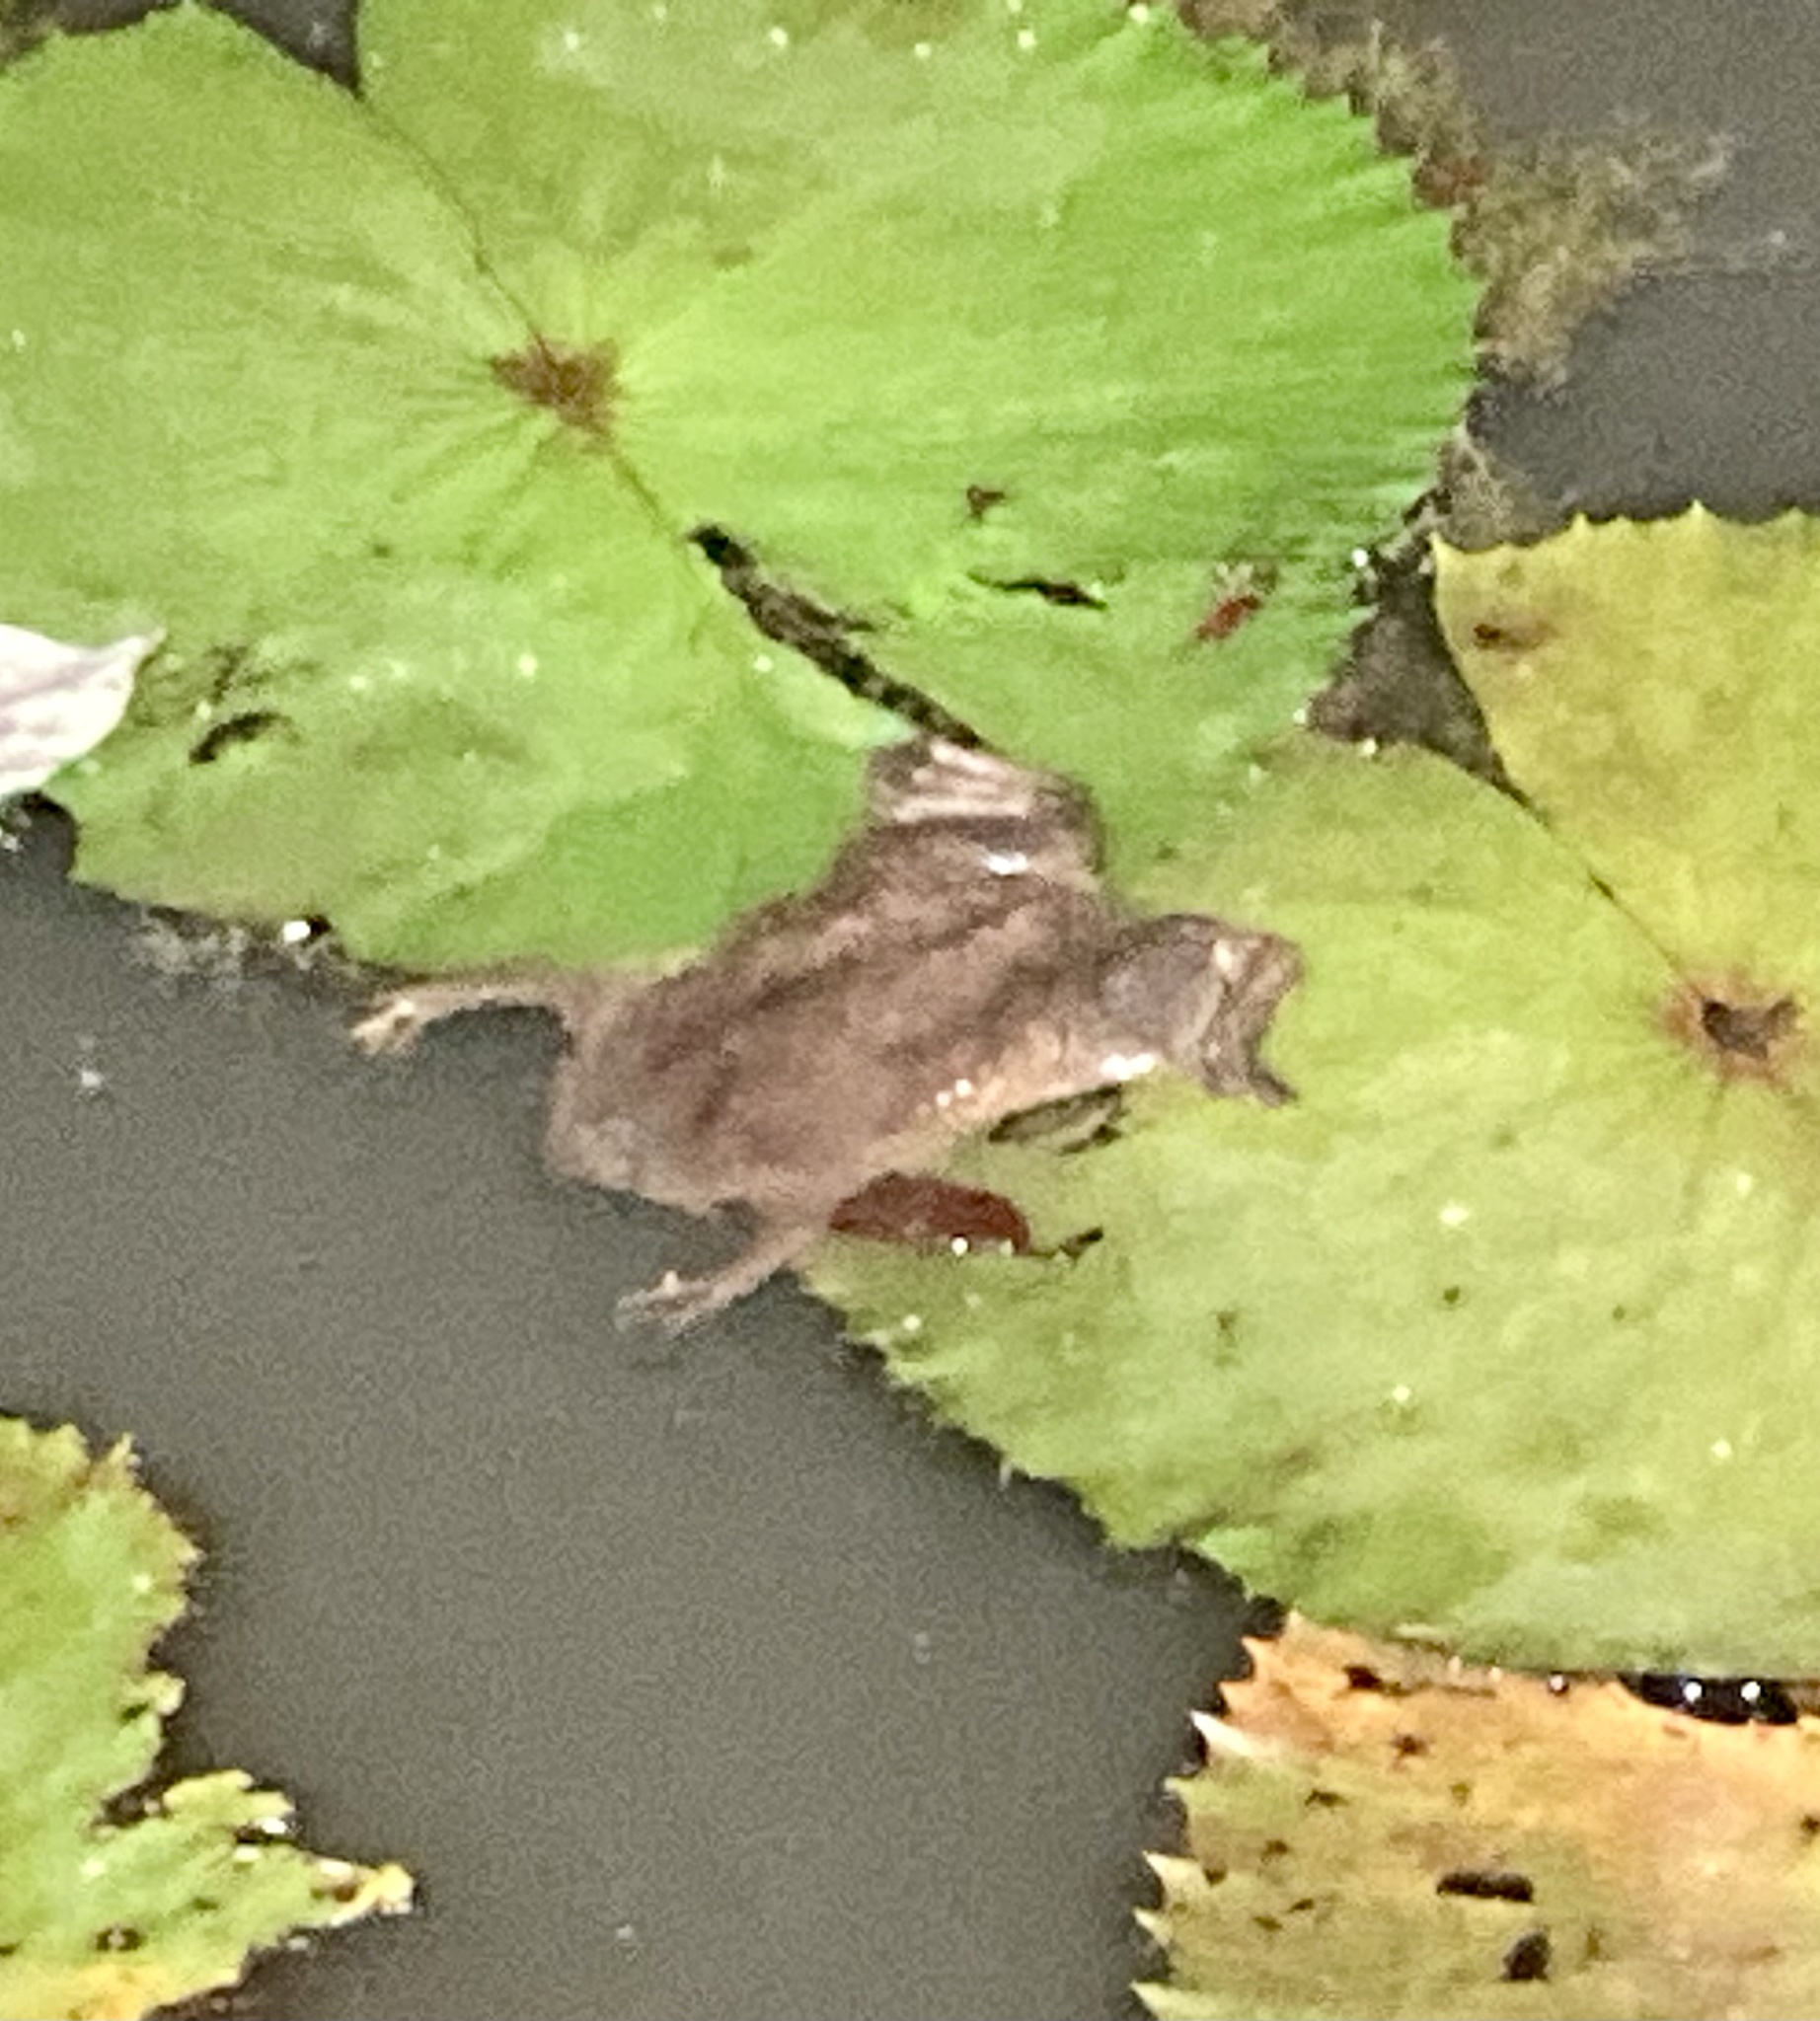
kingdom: Animalia
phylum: Chordata
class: Amphibia
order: Anura
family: Pipidae
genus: Pipa
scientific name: Pipa pipa
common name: Surinam toad
